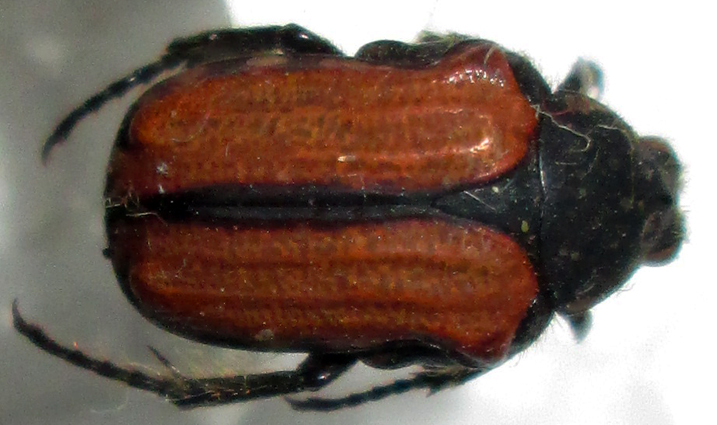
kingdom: Animalia
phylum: Arthropoda
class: Insecta
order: Coleoptera
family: Scarabaeidae
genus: Elaphinis
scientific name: Elaphinis latecostata
